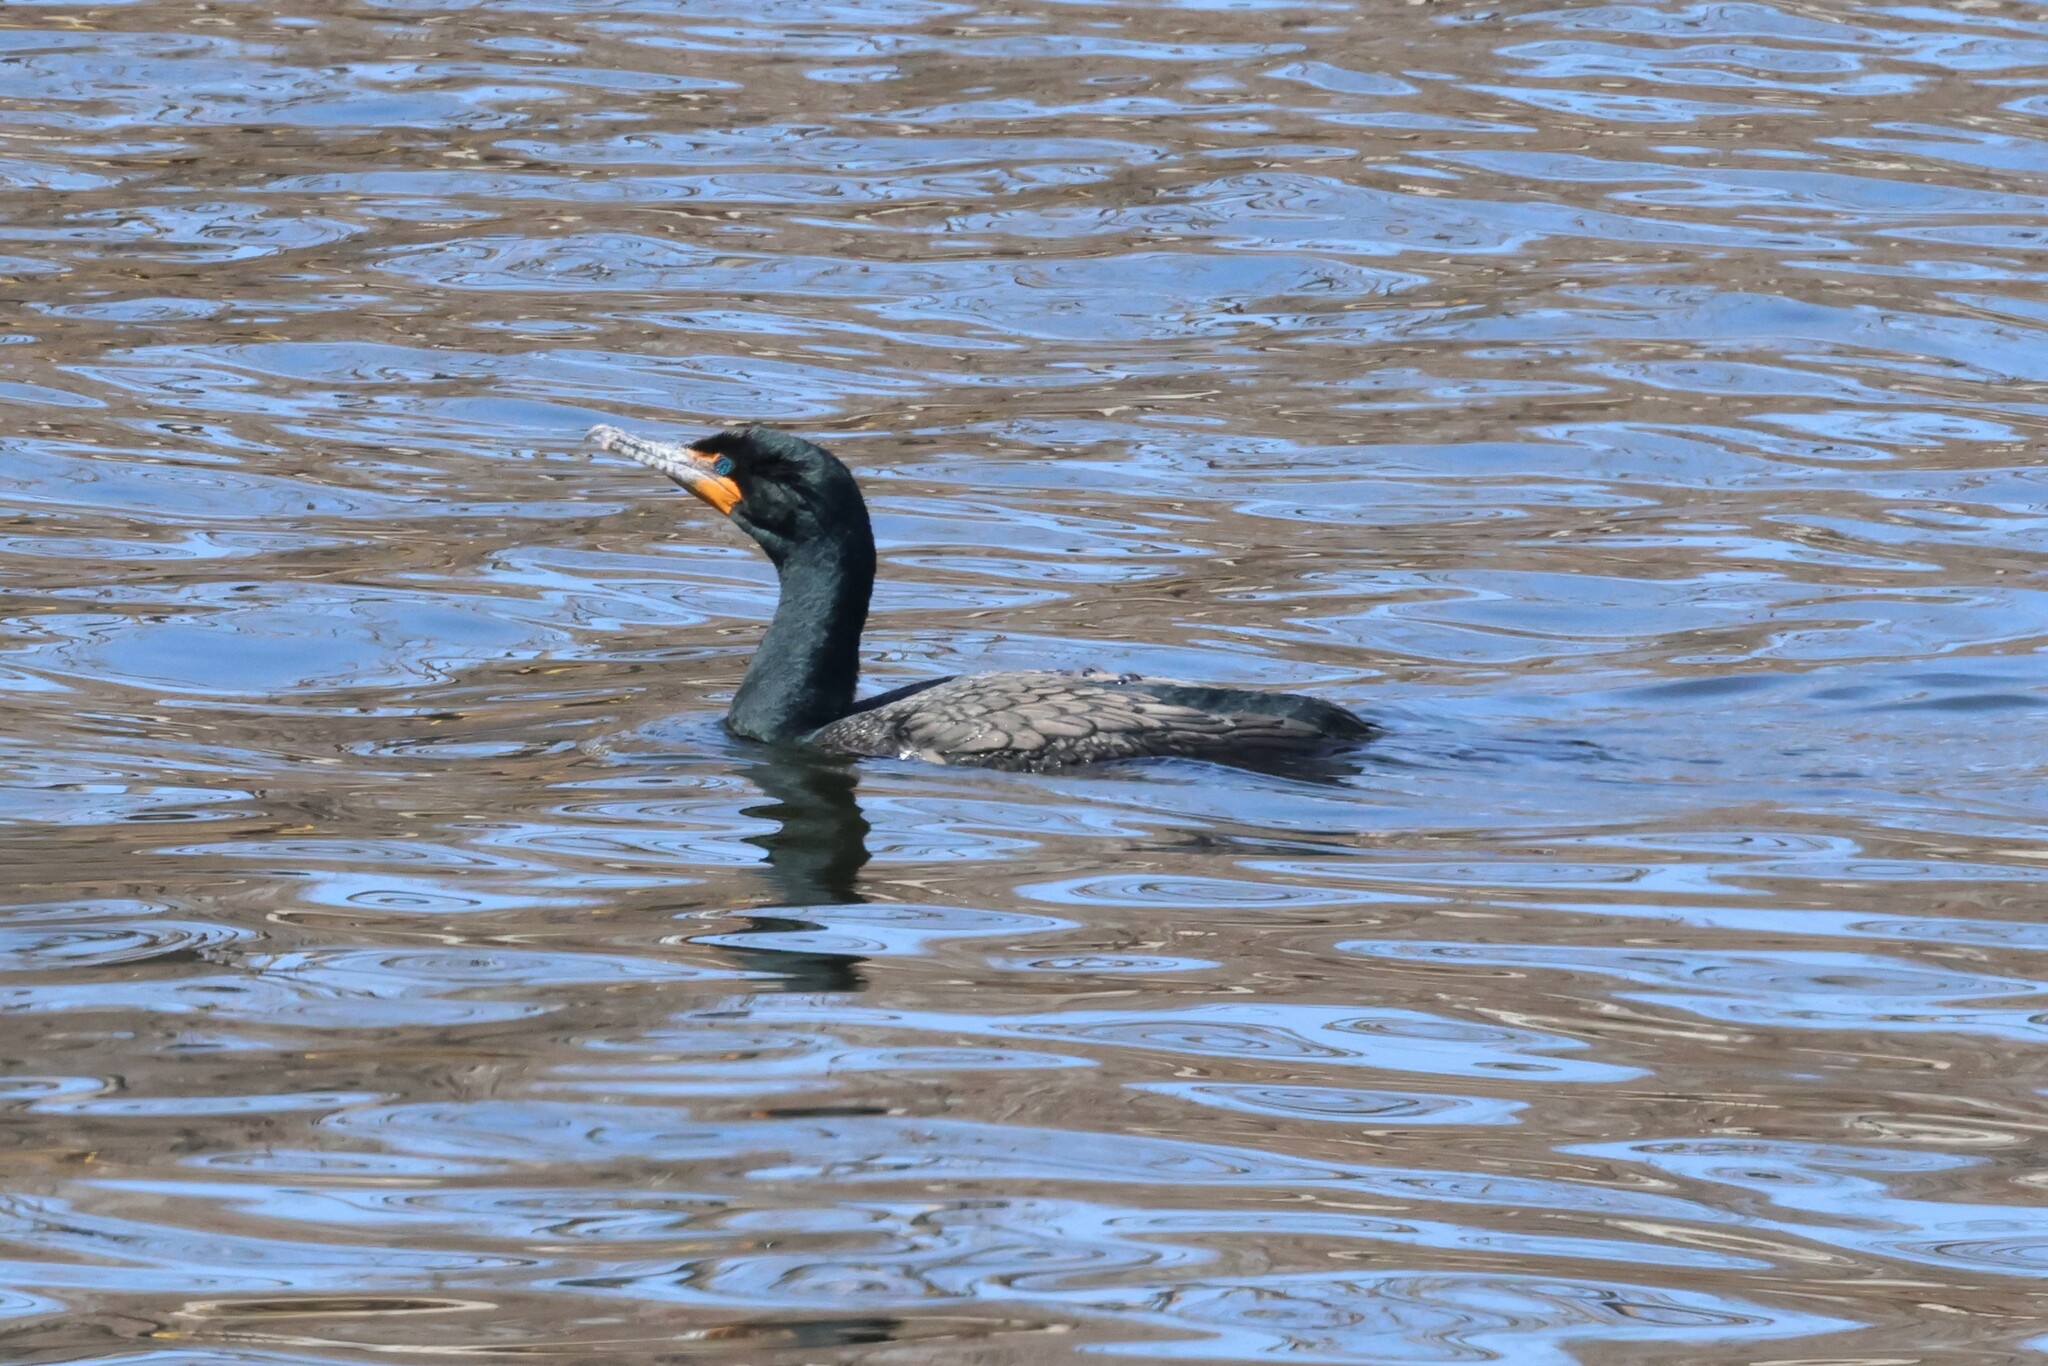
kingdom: Animalia
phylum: Chordata
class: Aves
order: Suliformes
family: Phalacrocoracidae
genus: Phalacrocorax
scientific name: Phalacrocorax auritus
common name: Double-crested cormorant
